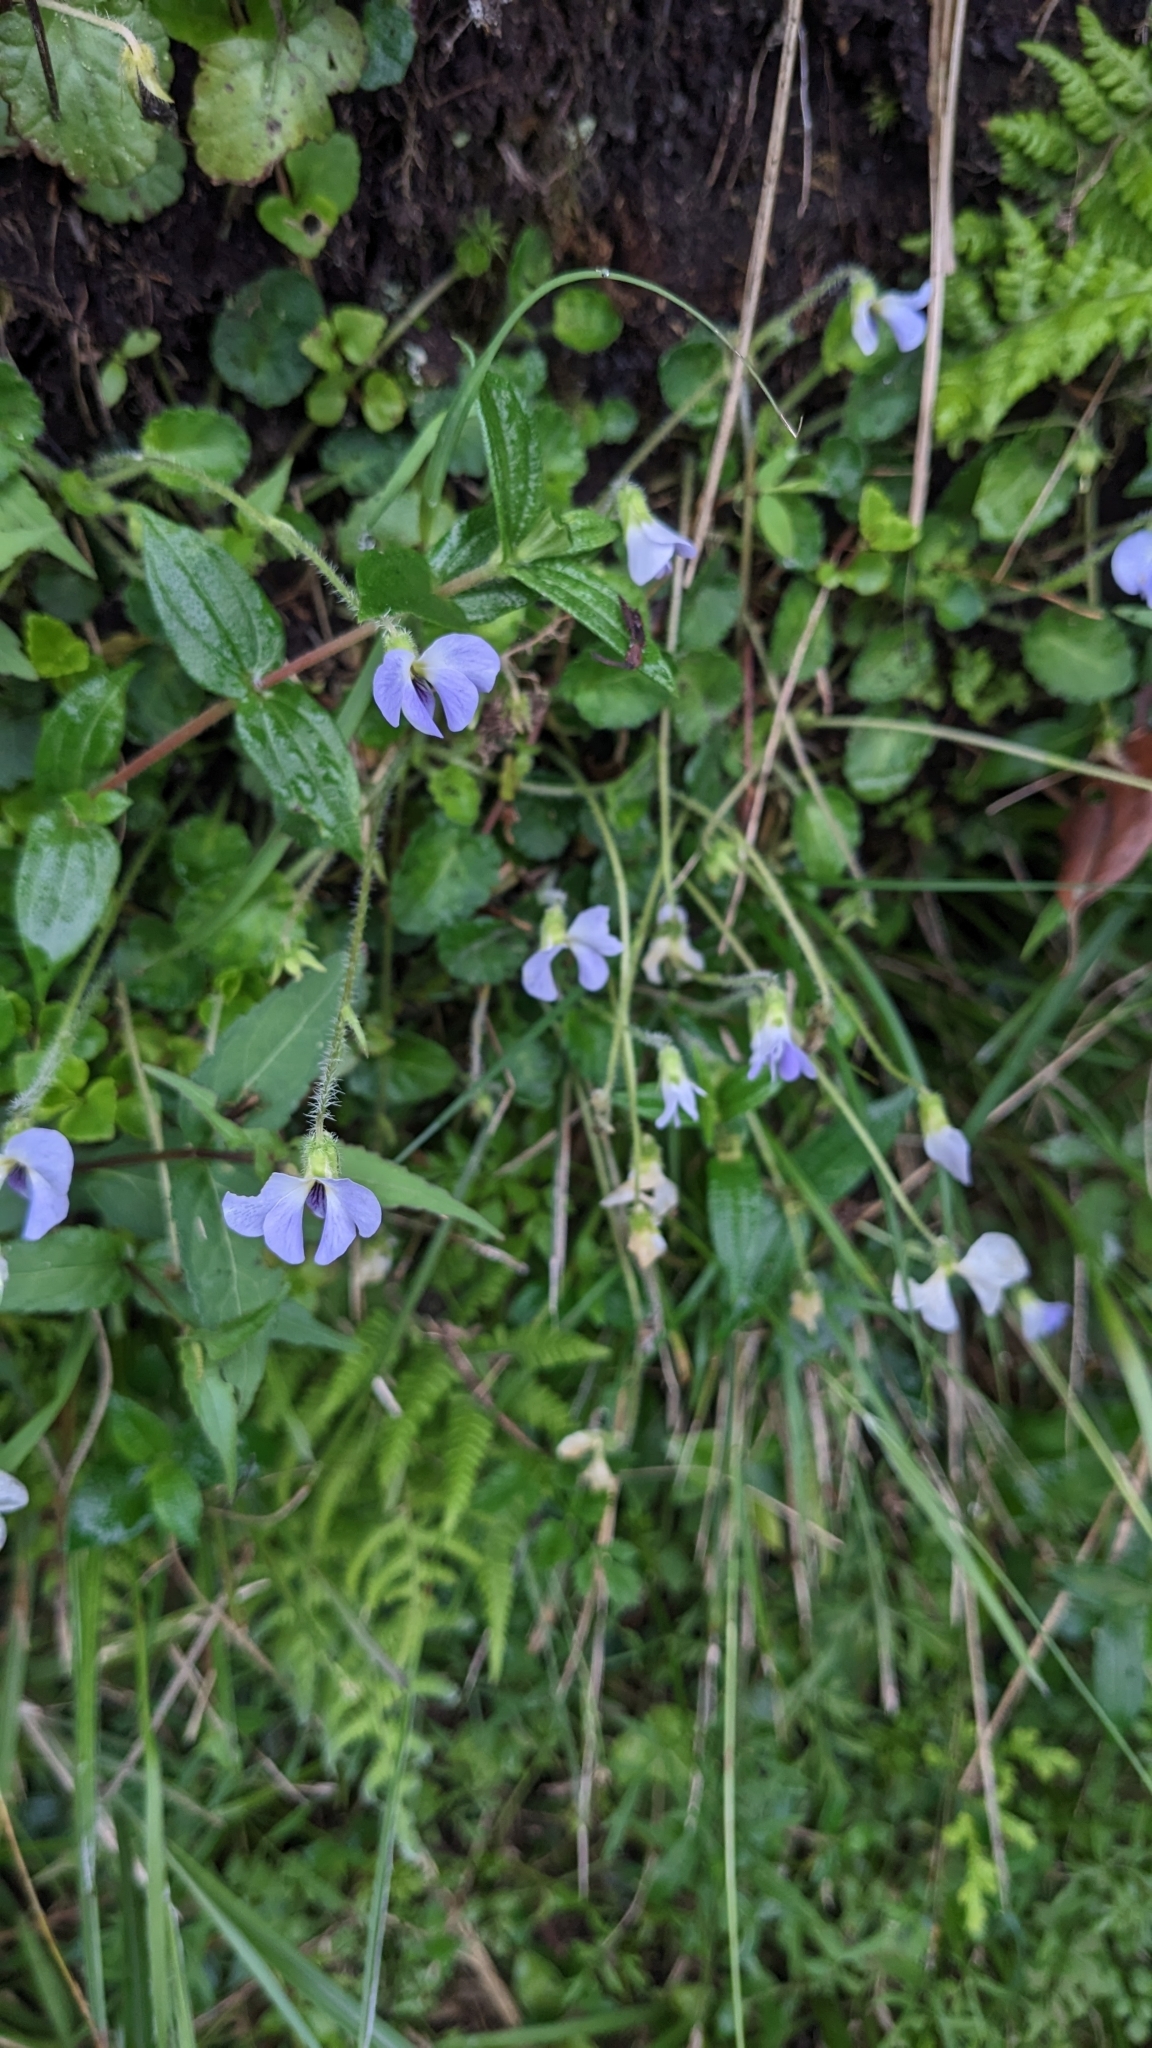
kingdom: Plantae
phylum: Tracheophyta
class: Magnoliopsida
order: Malpighiales
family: Violaceae
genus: Viola
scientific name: Viola nagasawae
